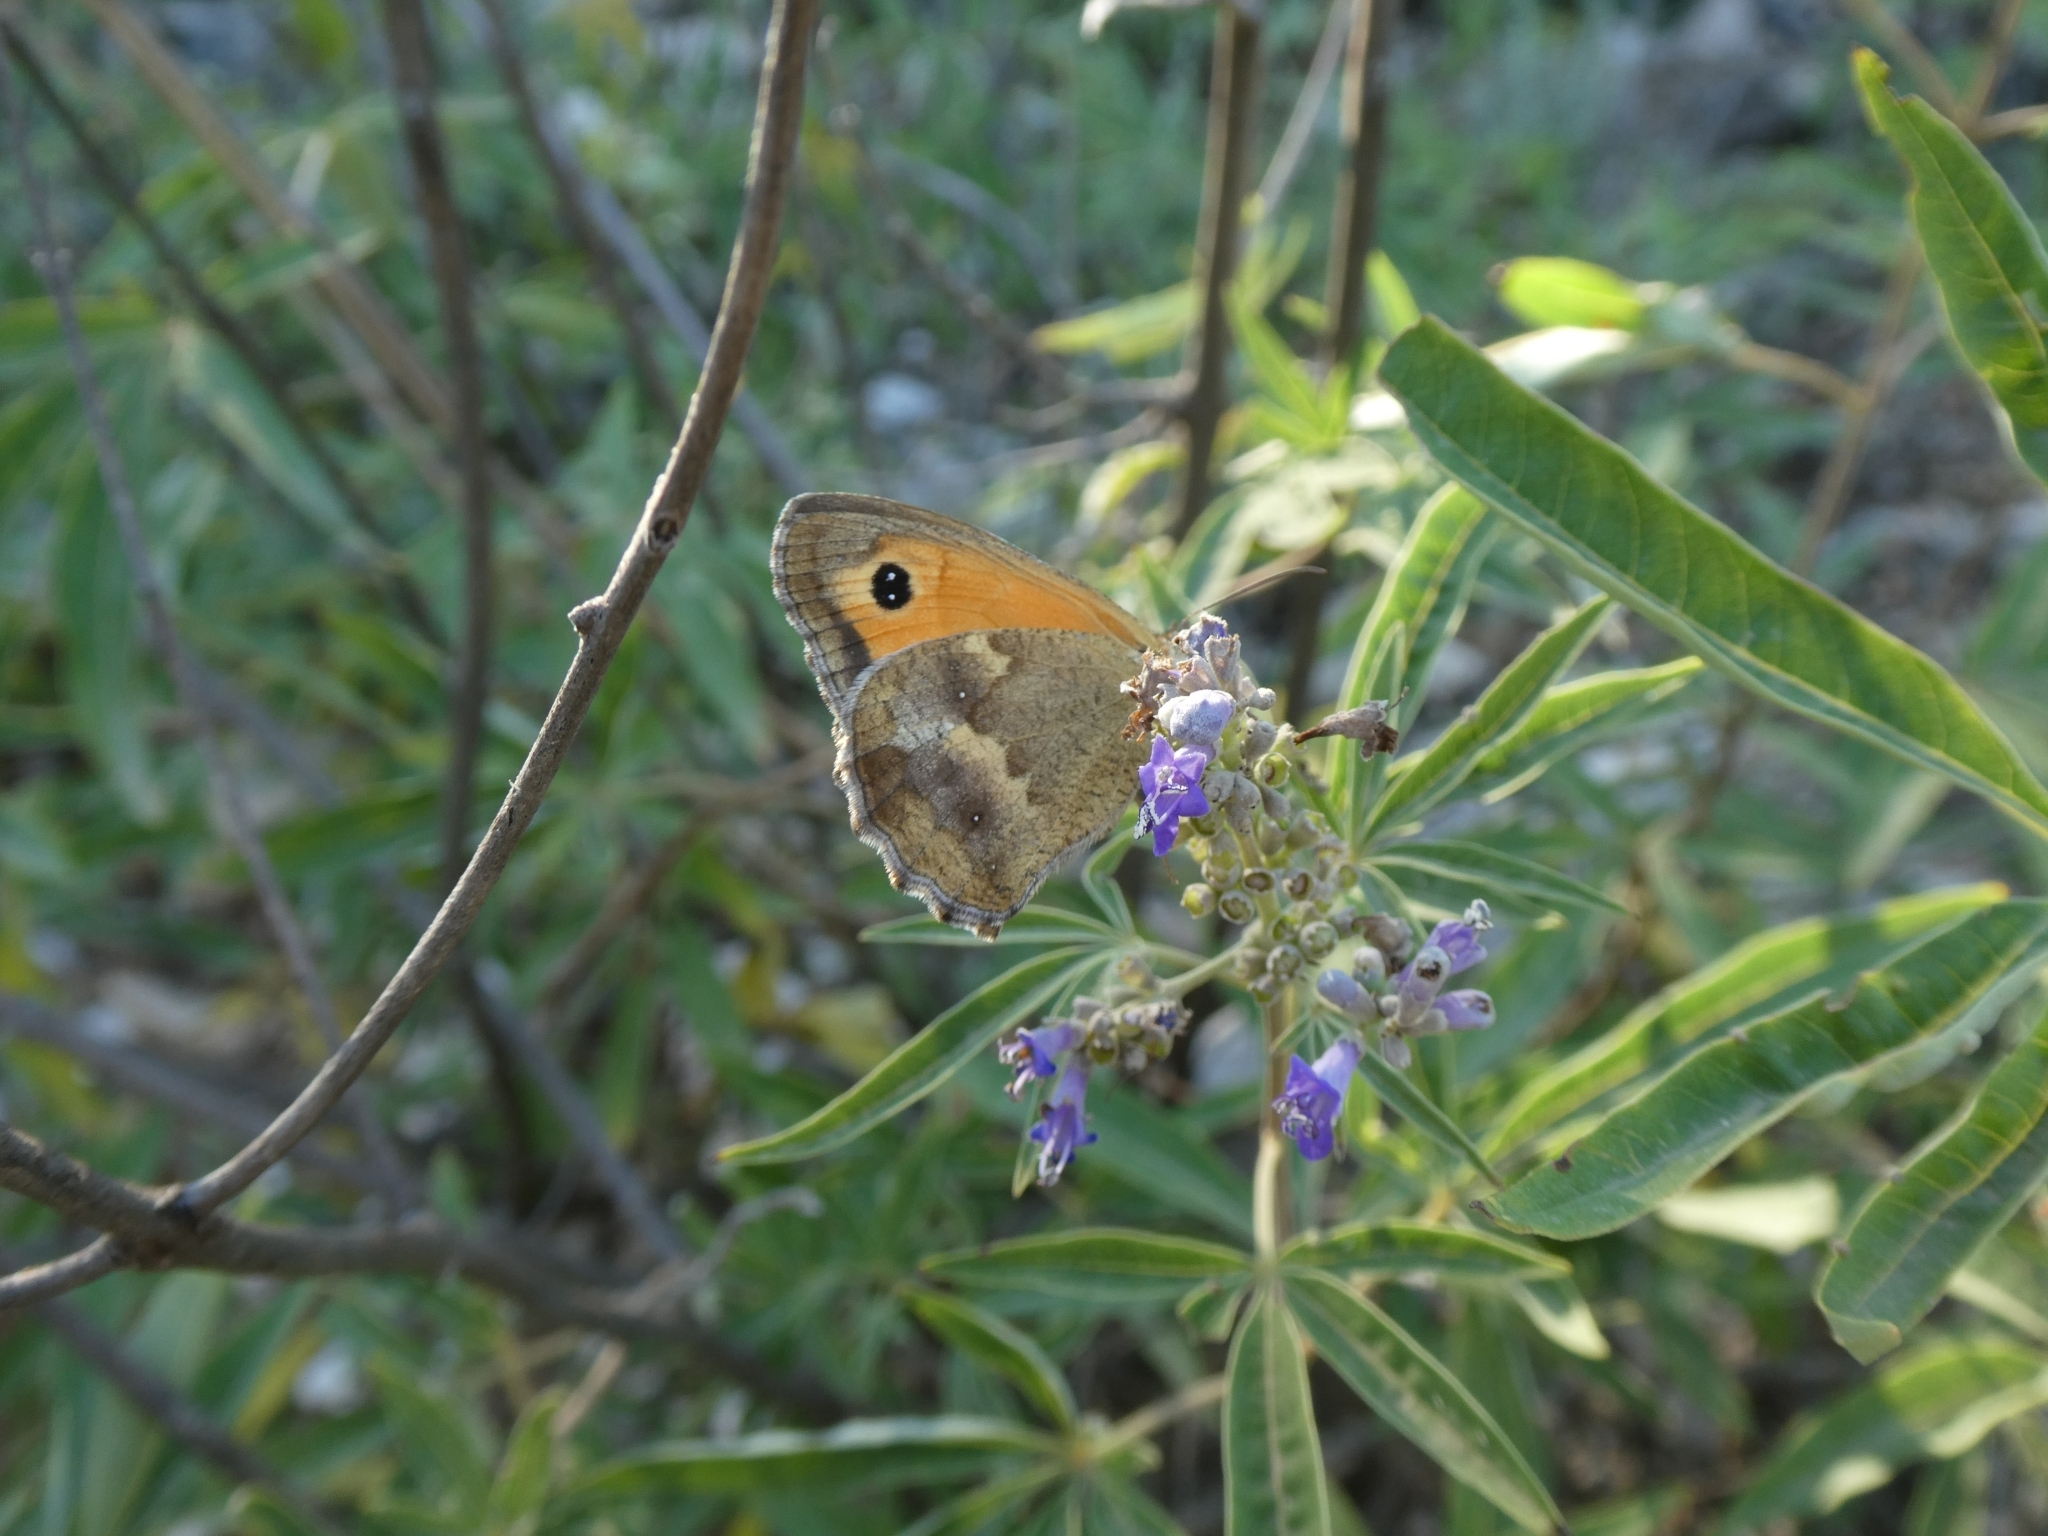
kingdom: Animalia
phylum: Arthropoda
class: Insecta
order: Lepidoptera
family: Nymphalidae
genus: Pyronia
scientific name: Pyronia tithonus
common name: Gatekeeper
